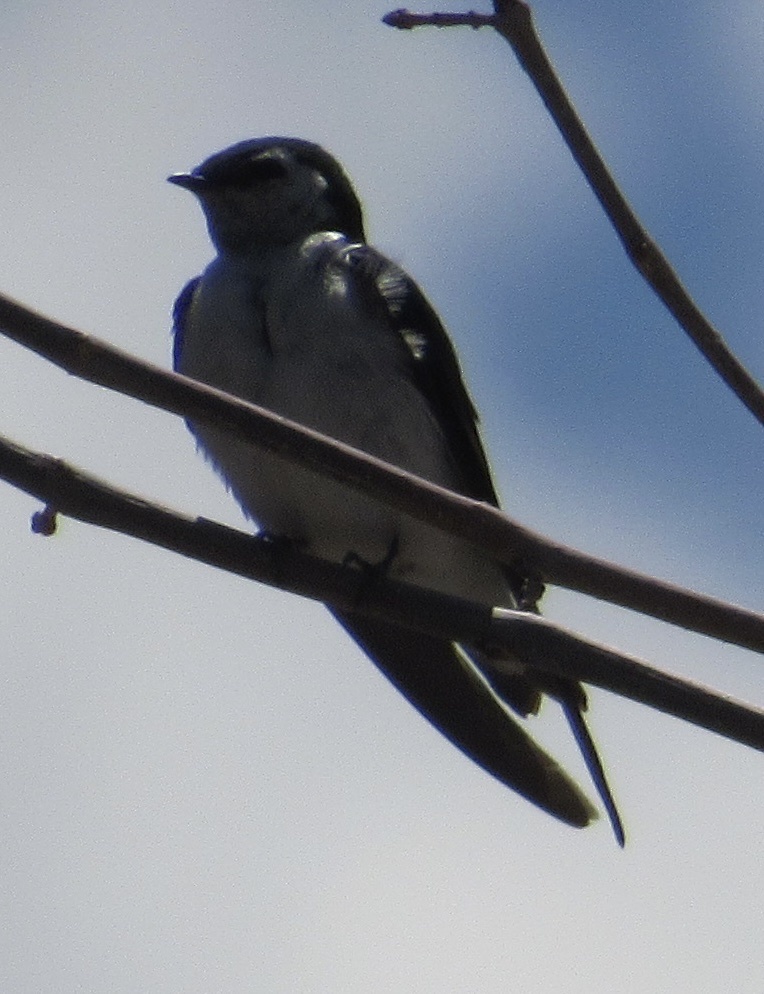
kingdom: Animalia
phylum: Chordata
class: Aves
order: Passeriformes
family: Hirundinidae
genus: Tachycineta
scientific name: Tachycineta thalassina
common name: Violet-green swallow
